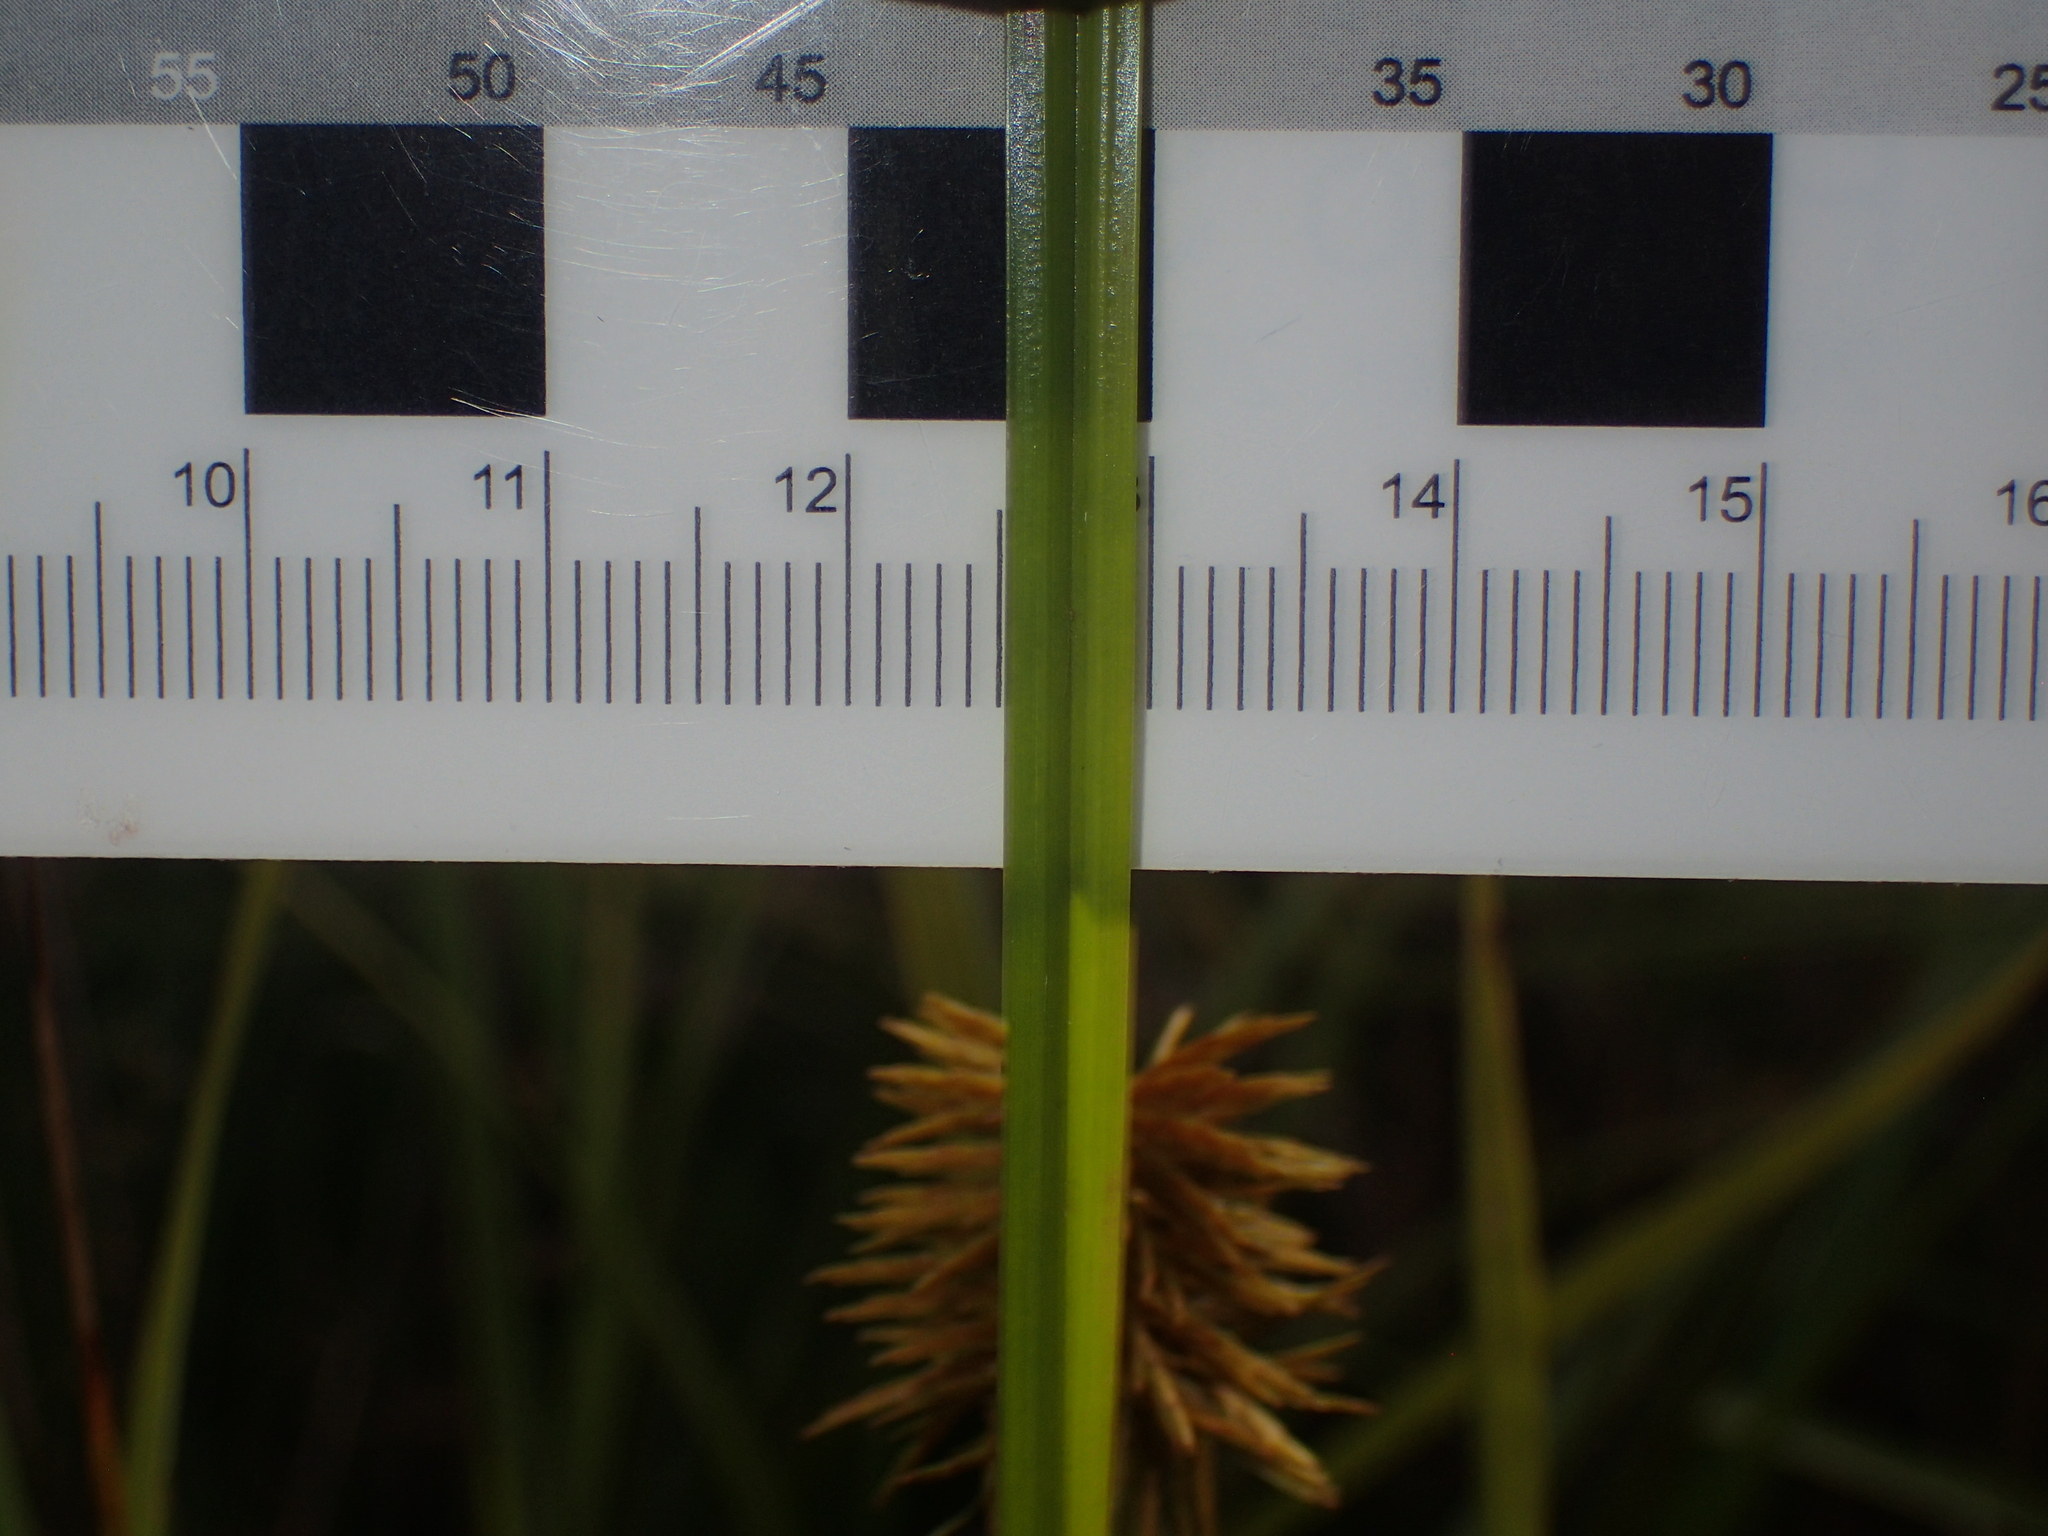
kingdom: Plantae
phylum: Tracheophyta
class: Liliopsida
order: Poales
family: Cyperaceae
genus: Cyperus
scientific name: Cyperus strigosus
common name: False nutsedge
